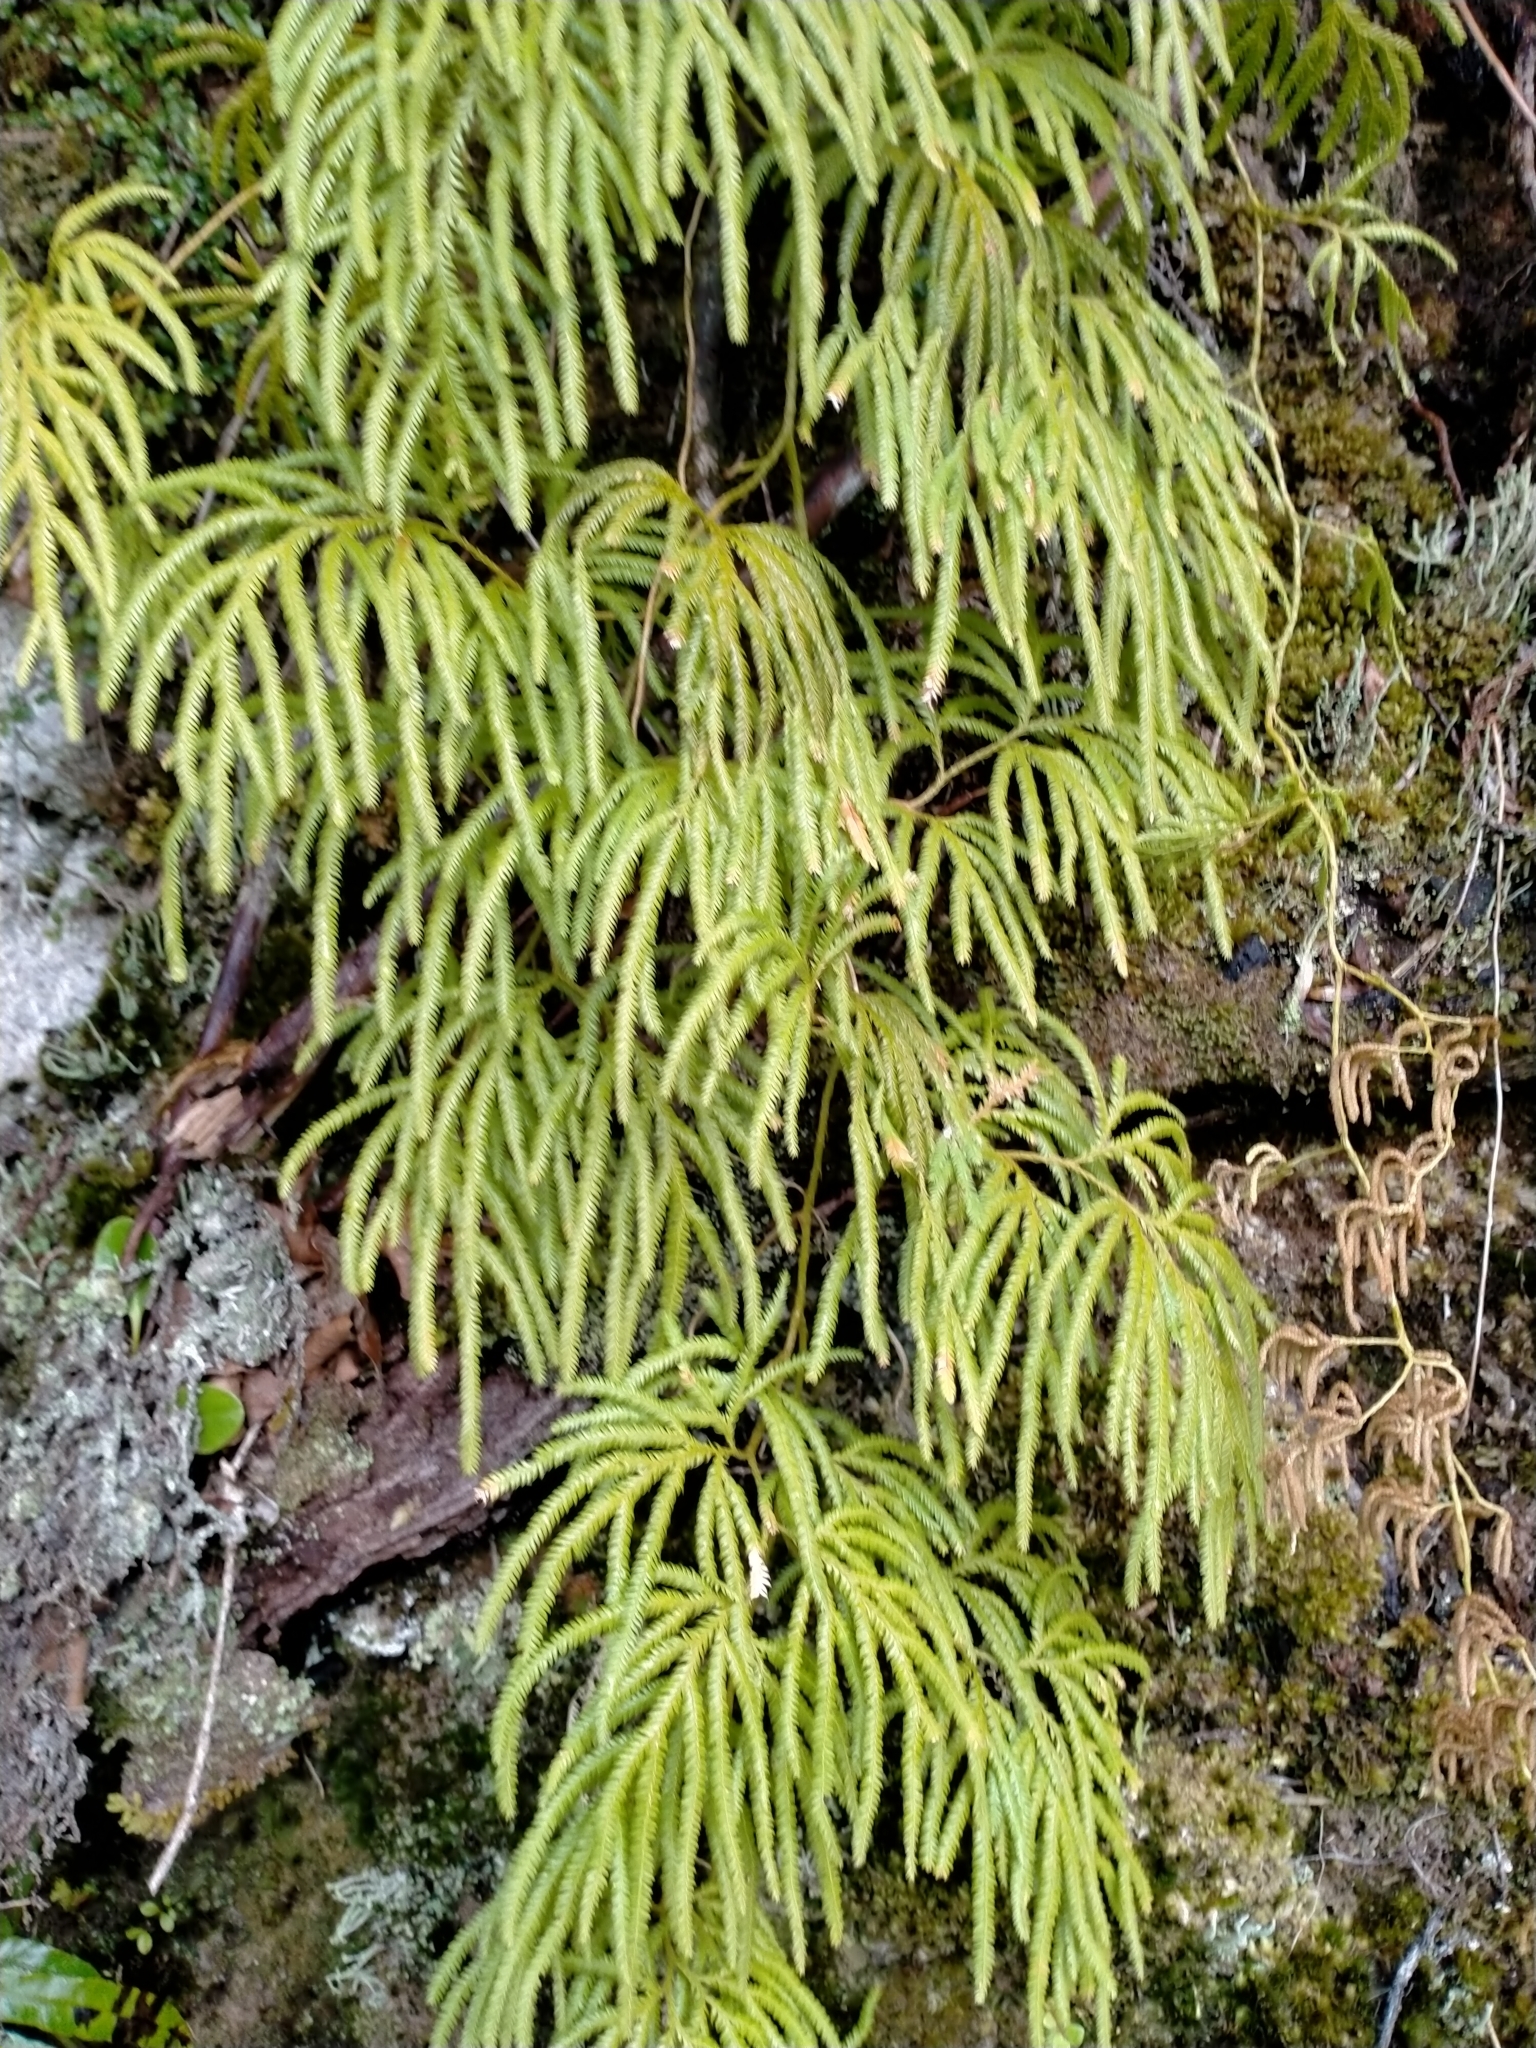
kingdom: Plantae
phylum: Tracheophyta
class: Lycopodiopsida
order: Lycopodiales
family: Lycopodiaceae
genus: Lycopodium
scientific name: Lycopodium volubile
